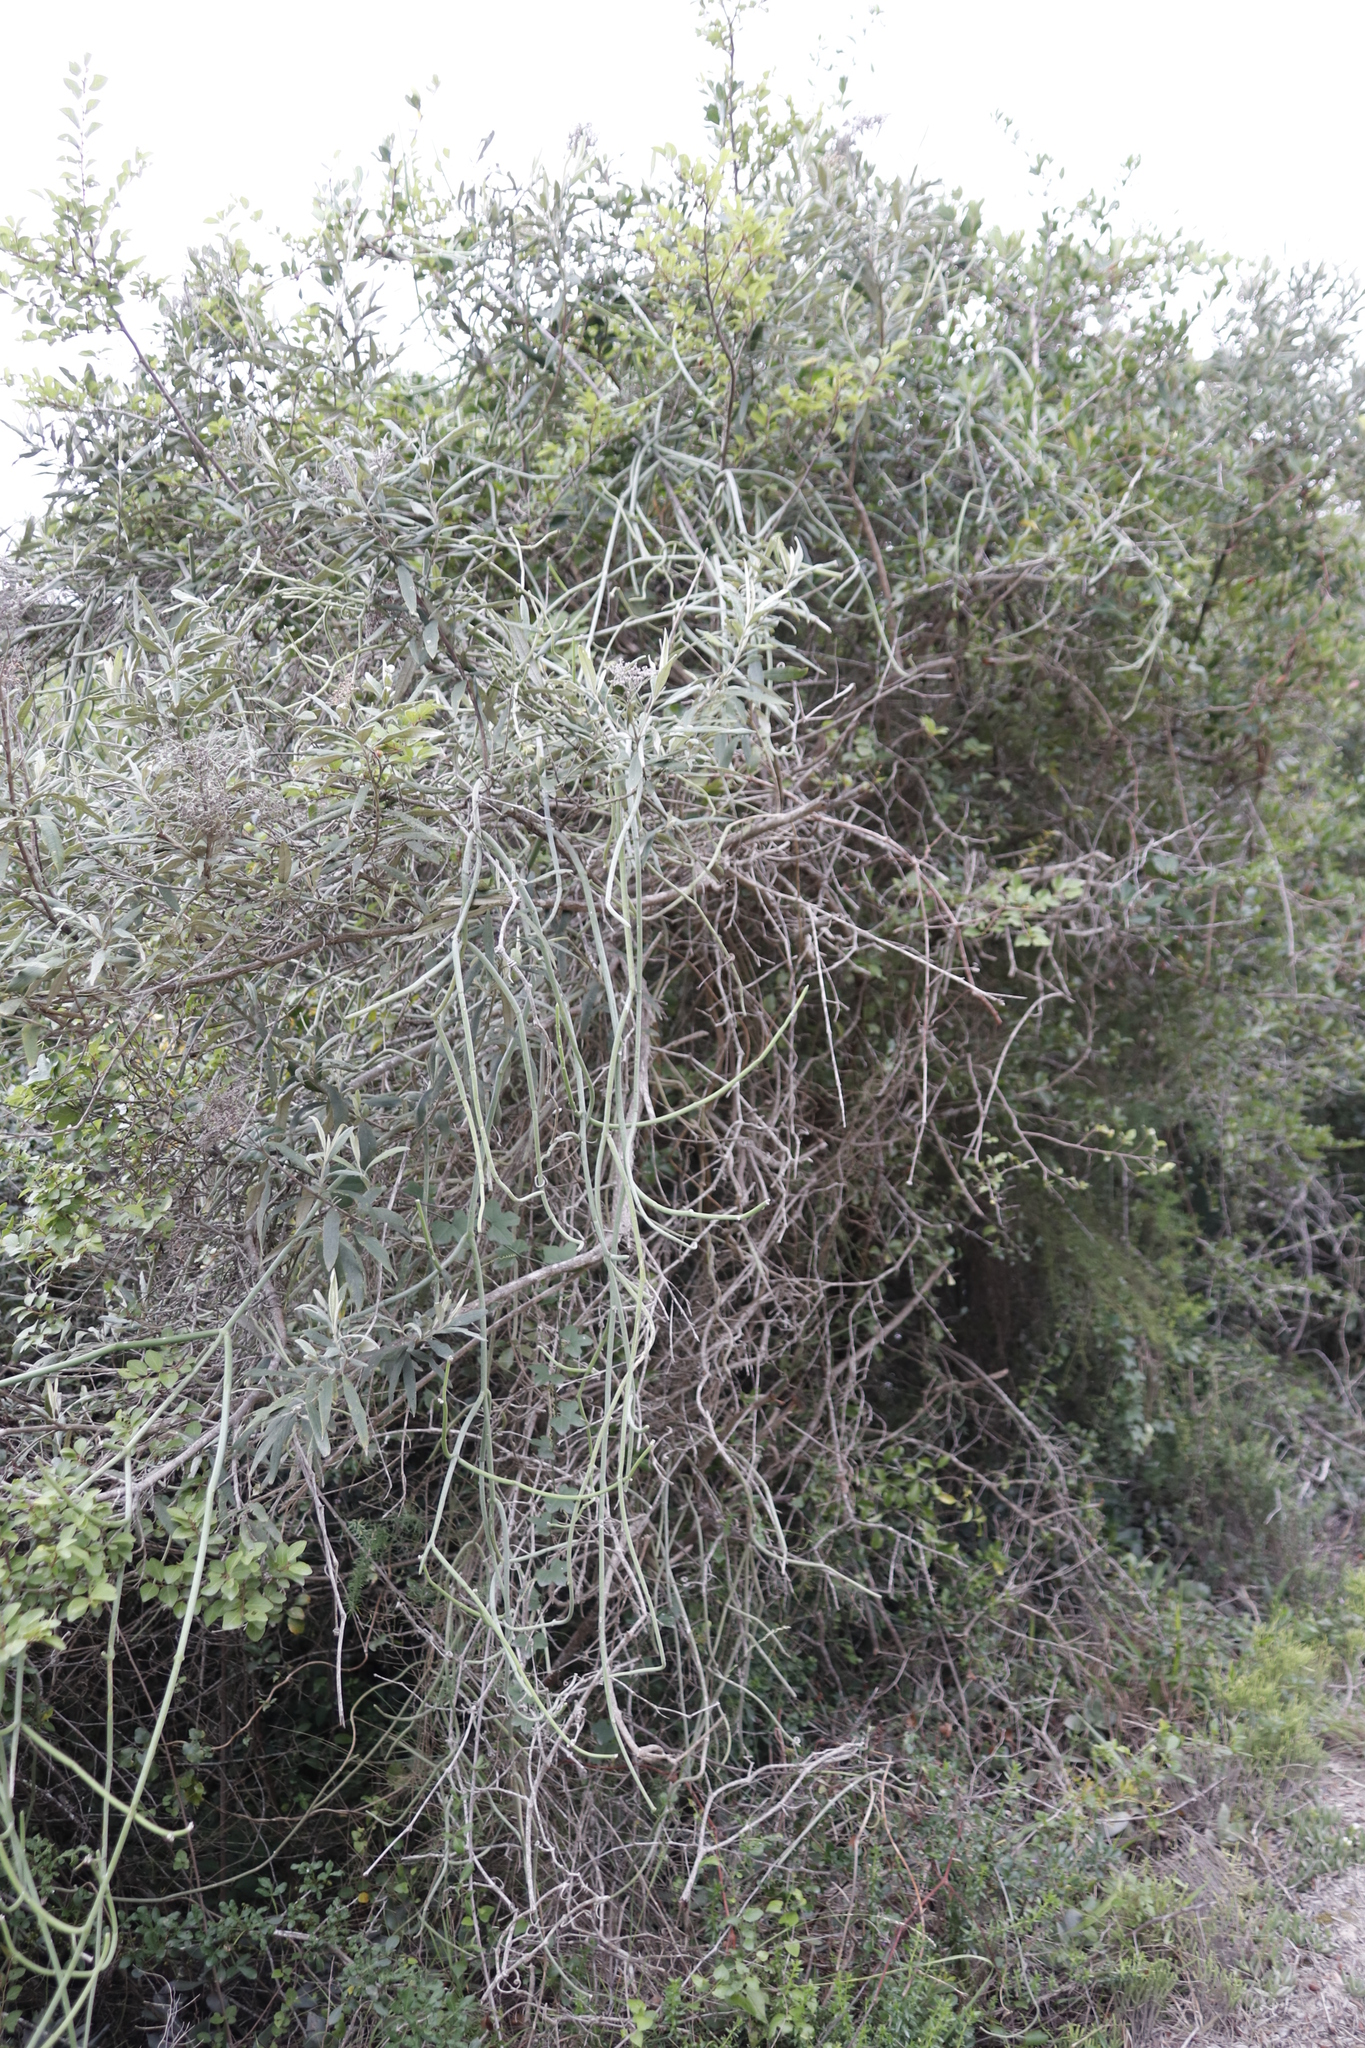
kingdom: Plantae
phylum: Tracheophyta
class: Magnoliopsida
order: Gentianales
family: Apocynaceae
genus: Cynanchum
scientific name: Cynanchum viminale
